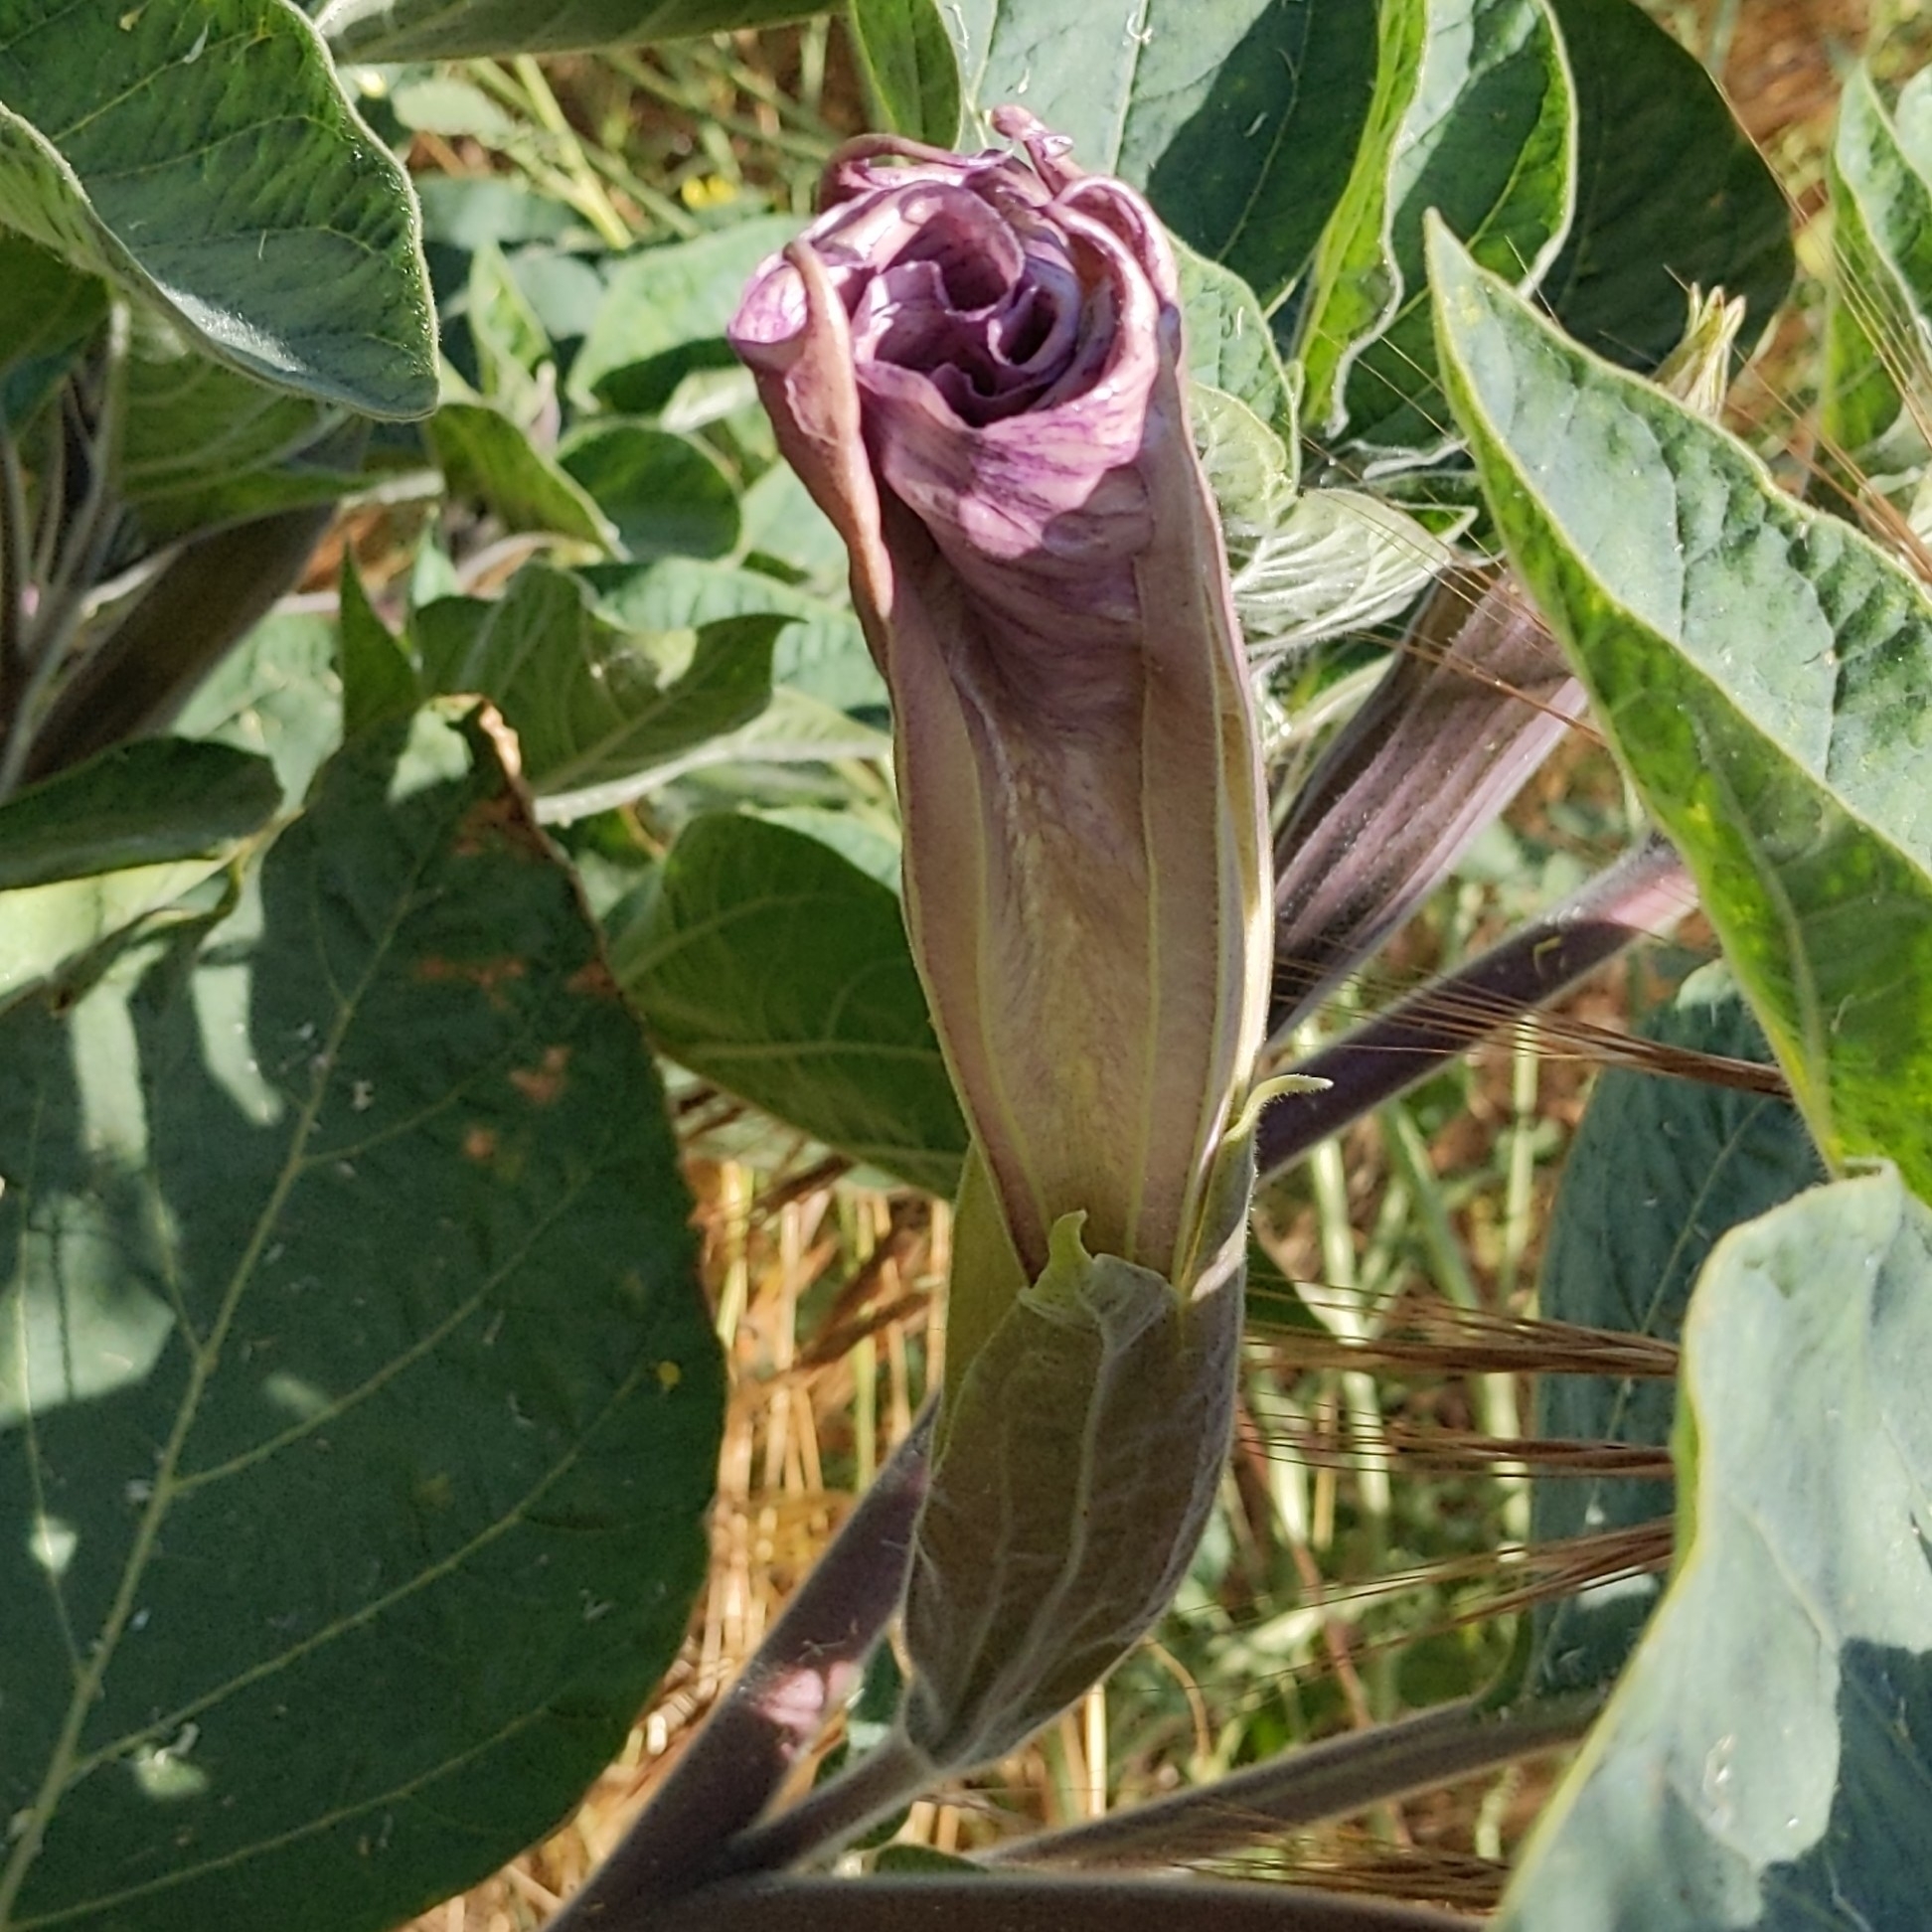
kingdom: Plantae
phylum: Tracheophyta
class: Magnoliopsida
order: Solanales
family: Solanaceae
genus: Datura
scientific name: Datura wrightii
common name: Sacred thorn-apple
